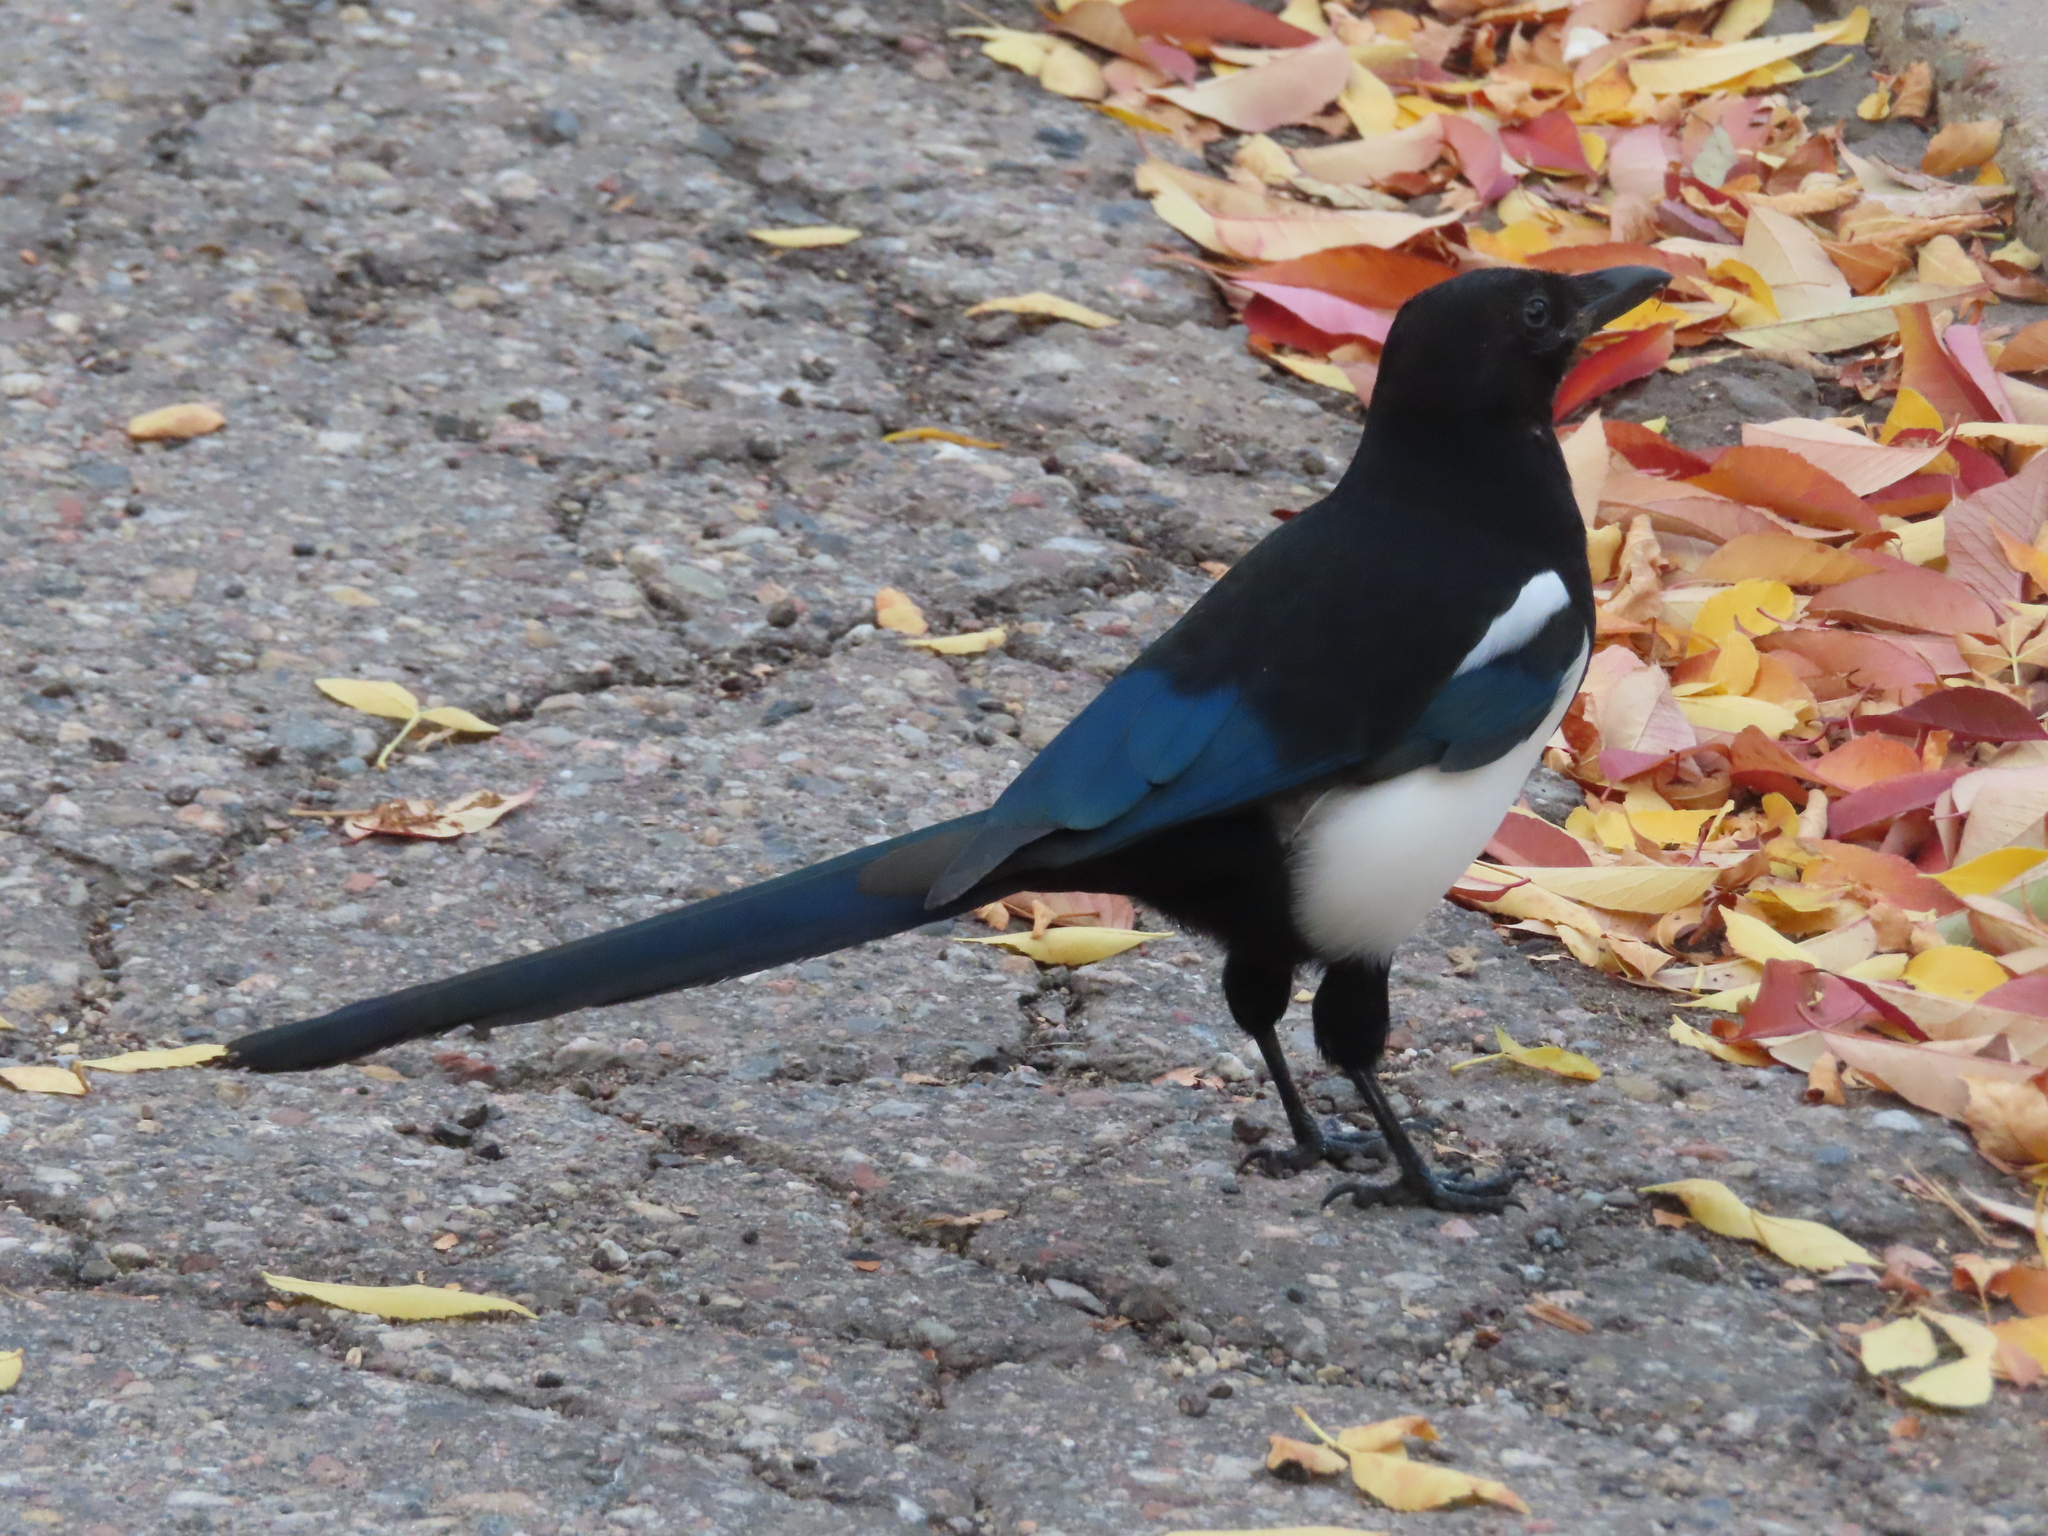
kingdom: Animalia
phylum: Chordata
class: Aves
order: Passeriformes
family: Corvidae
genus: Pica
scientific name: Pica hudsonia
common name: Black-billed magpie
